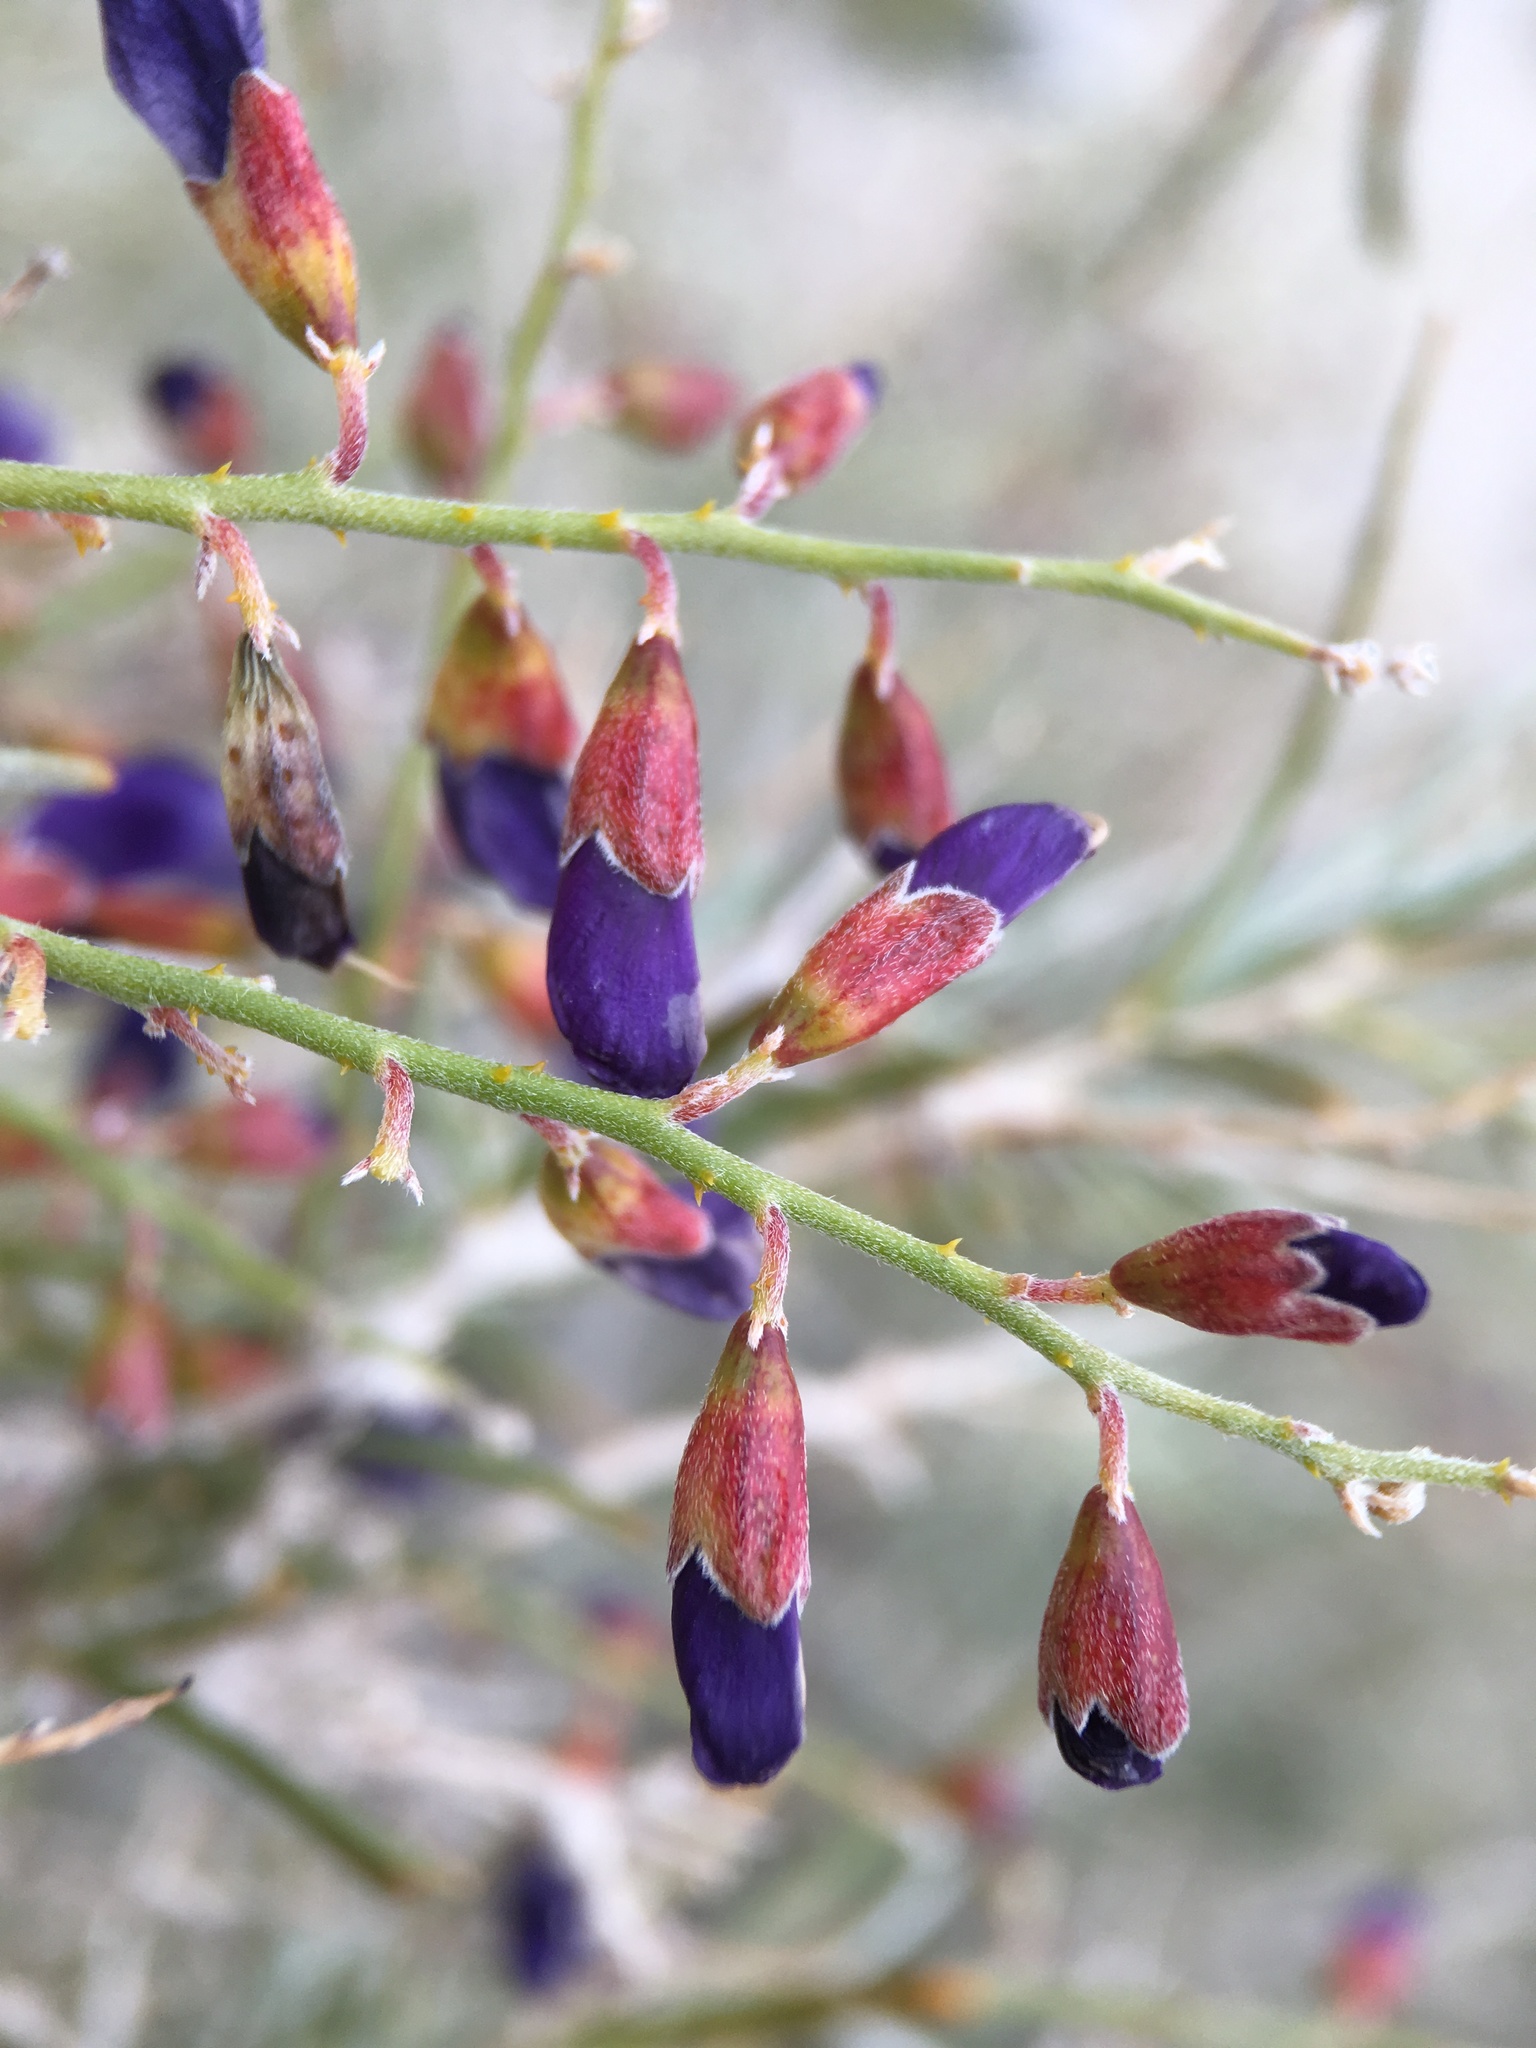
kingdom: Plantae
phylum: Tracheophyta
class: Magnoliopsida
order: Fabales
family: Fabaceae
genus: Psorothamnus
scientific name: Psorothamnus schottii
